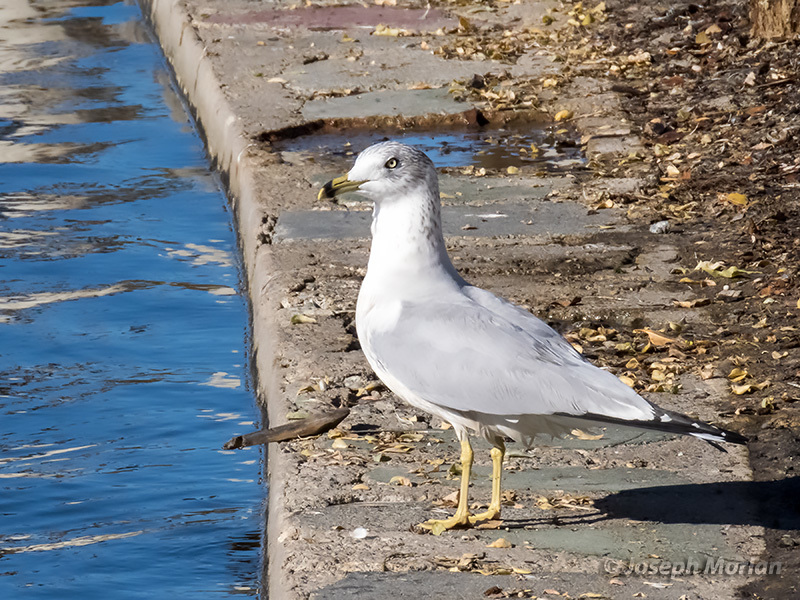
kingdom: Animalia
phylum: Chordata
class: Aves
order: Charadriiformes
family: Laridae
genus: Larus
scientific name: Larus delawarensis
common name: Ring-billed gull
